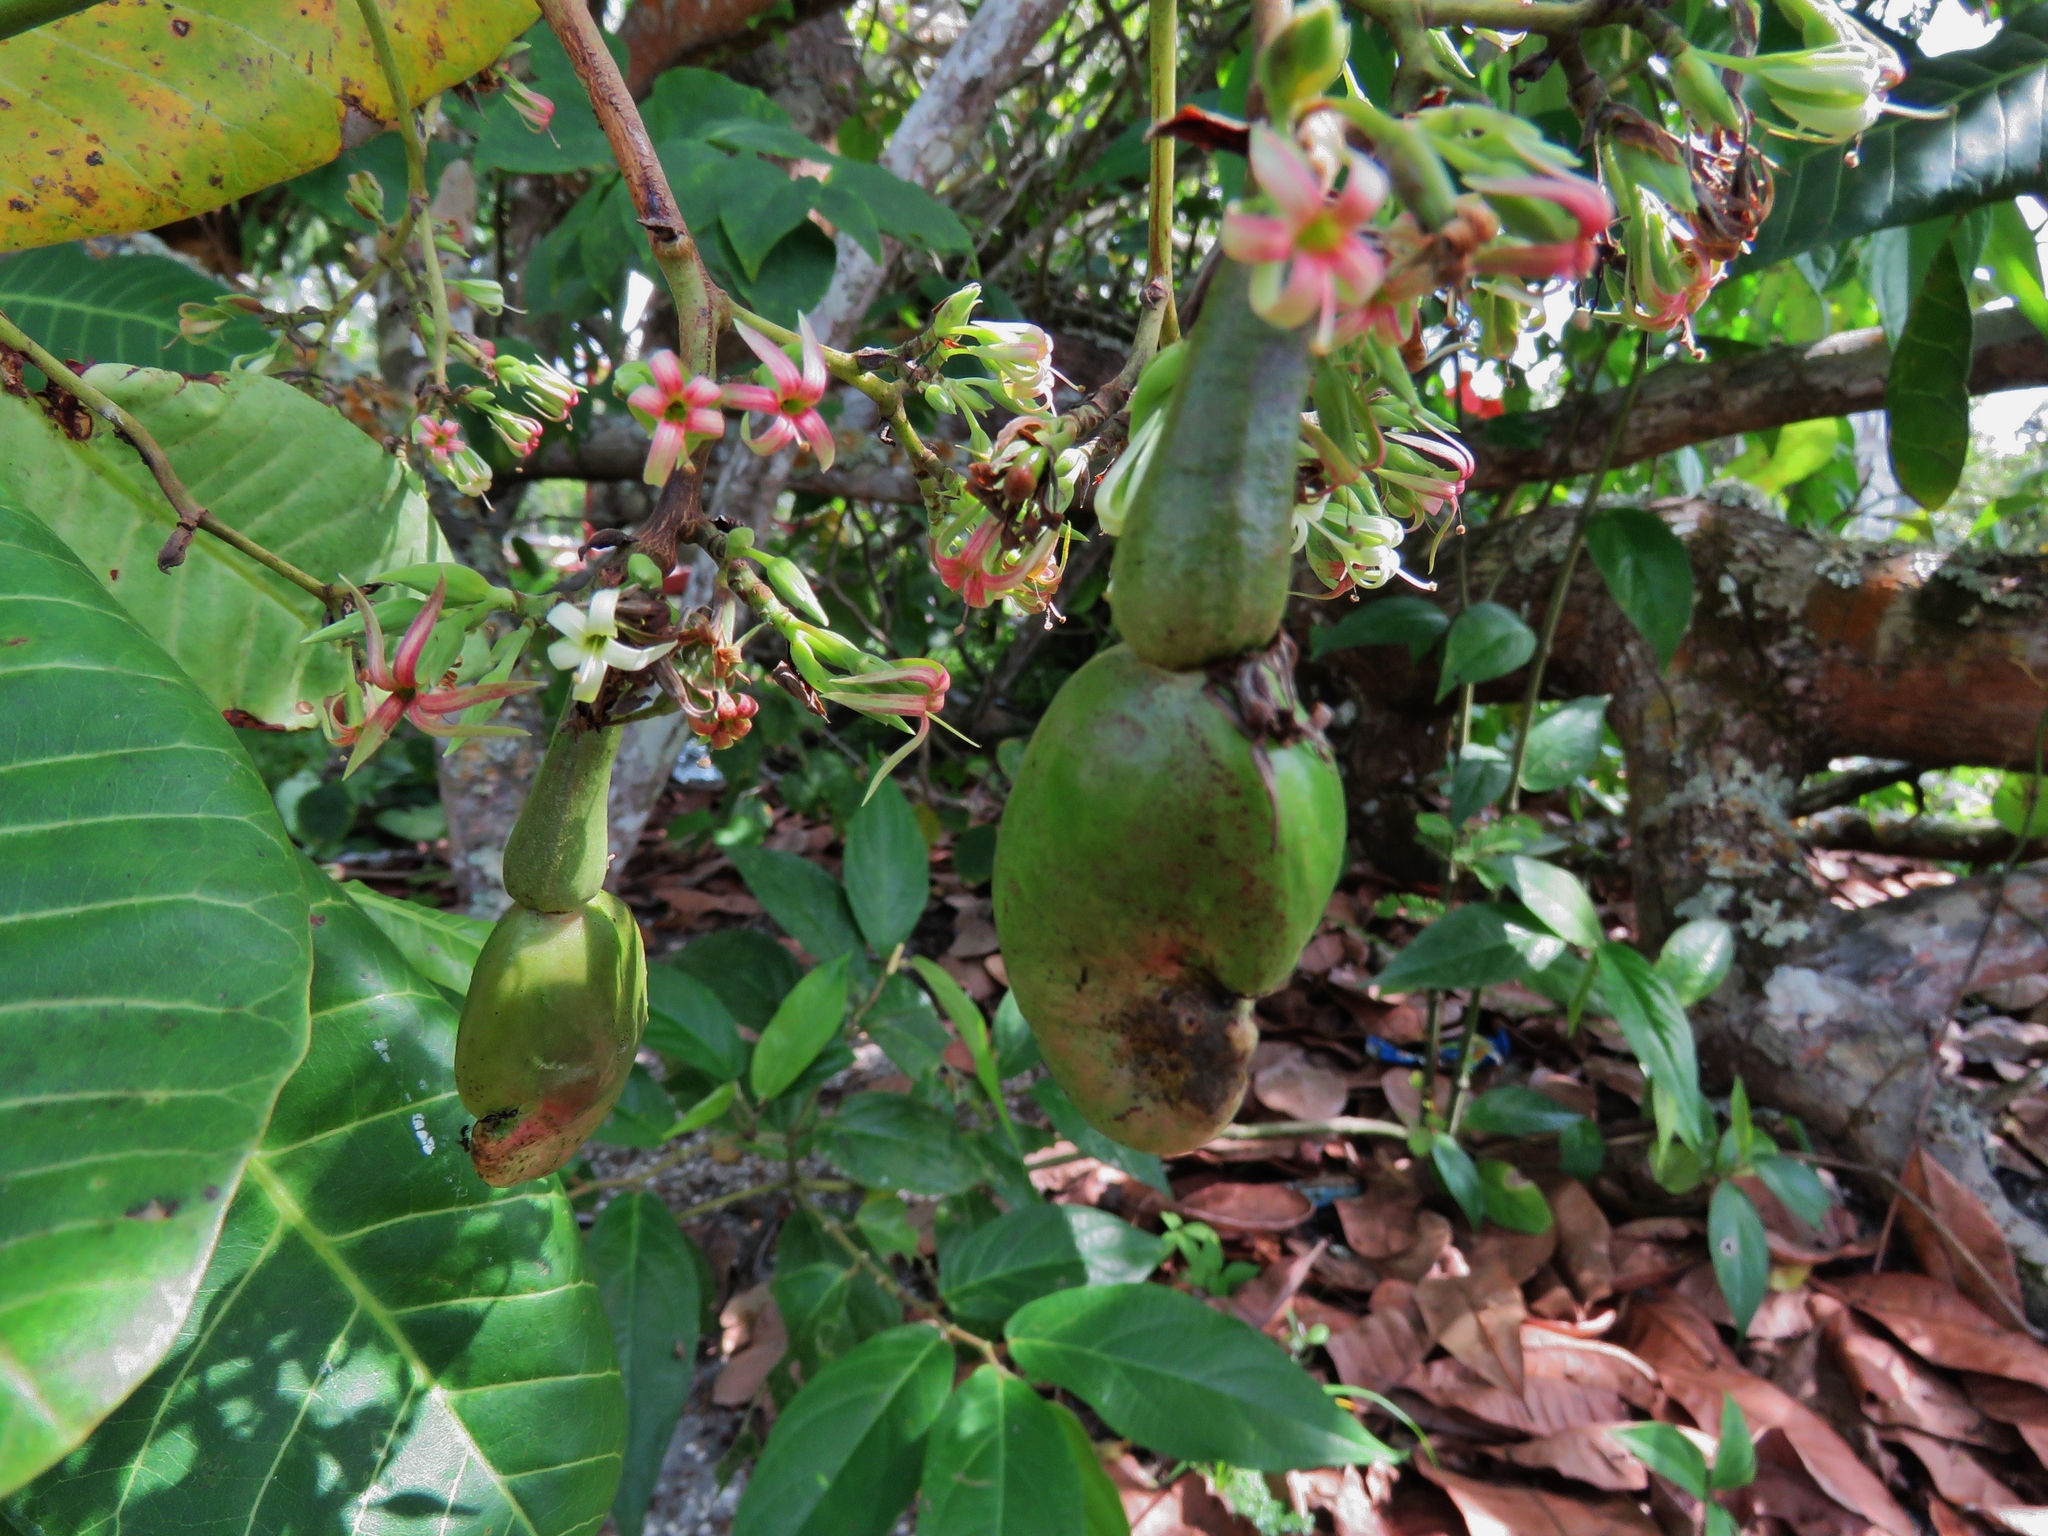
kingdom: Plantae
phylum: Tracheophyta
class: Magnoliopsida
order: Sapindales
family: Anacardiaceae
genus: Anacardium
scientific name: Anacardium occidentale
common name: Cashew
